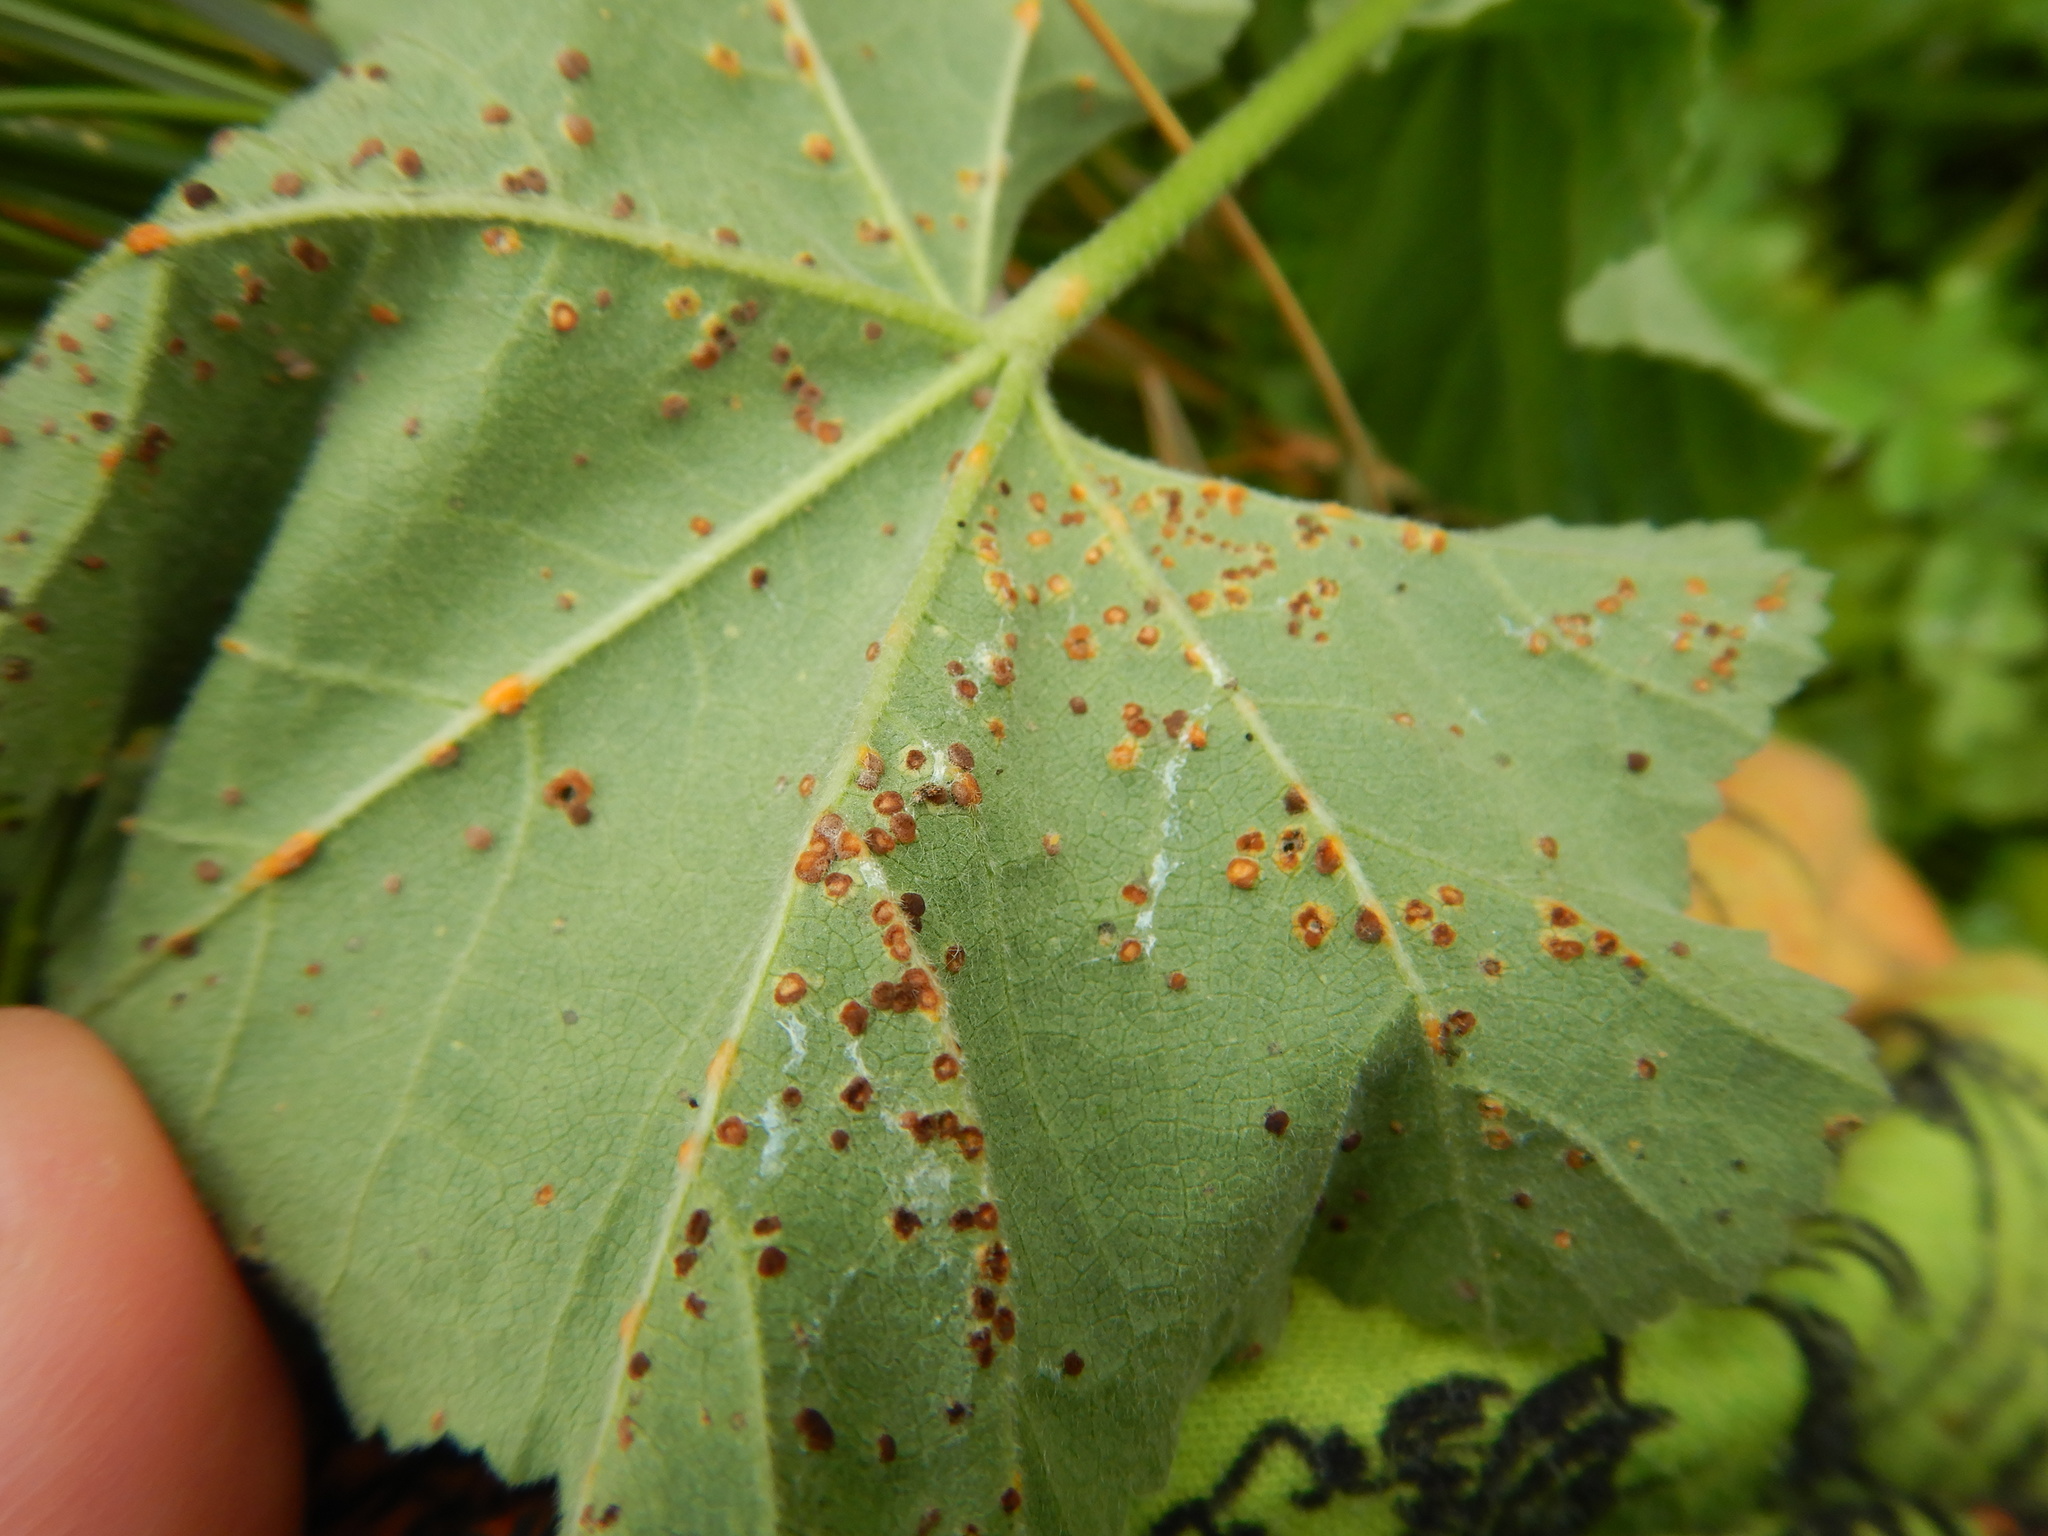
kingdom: Fungi
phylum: Basidiomycota
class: Pucciniomycetes
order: Pucciniales
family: Pucciniaceae
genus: Puccinia
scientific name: Puccinia malvacearum
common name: Hollyhock rust
